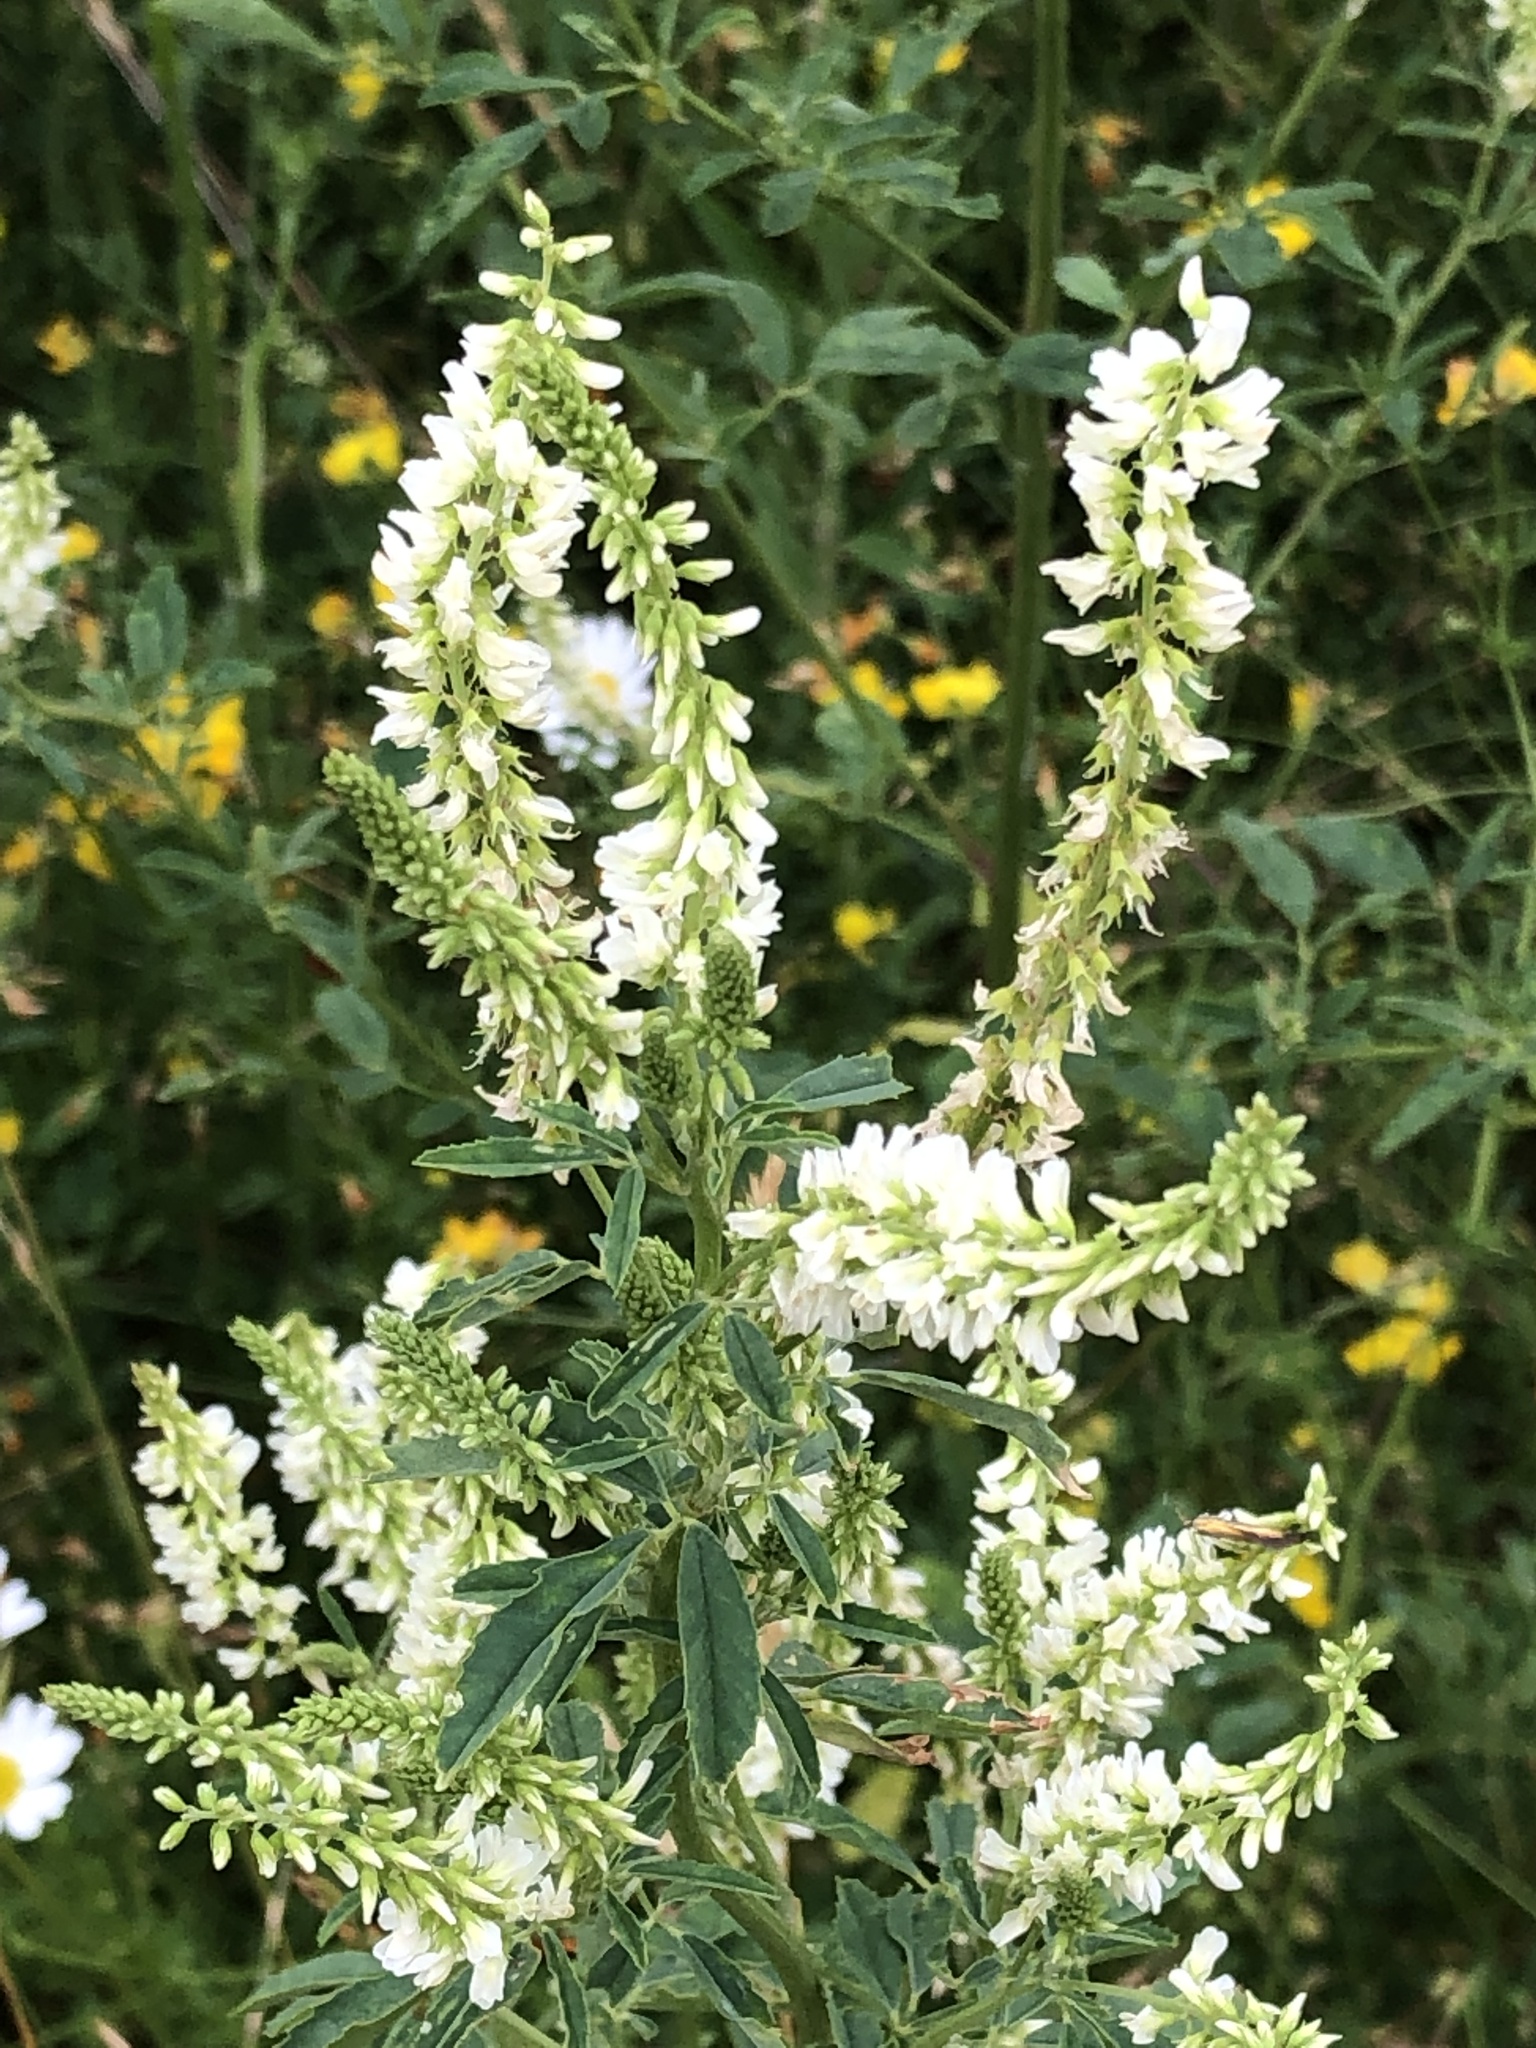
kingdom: Plantae
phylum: Tracheophyta
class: Magnoliopsida
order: Fabales
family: Fabaceae
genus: Melilotus
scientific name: Melilotus albus
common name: White melilot
